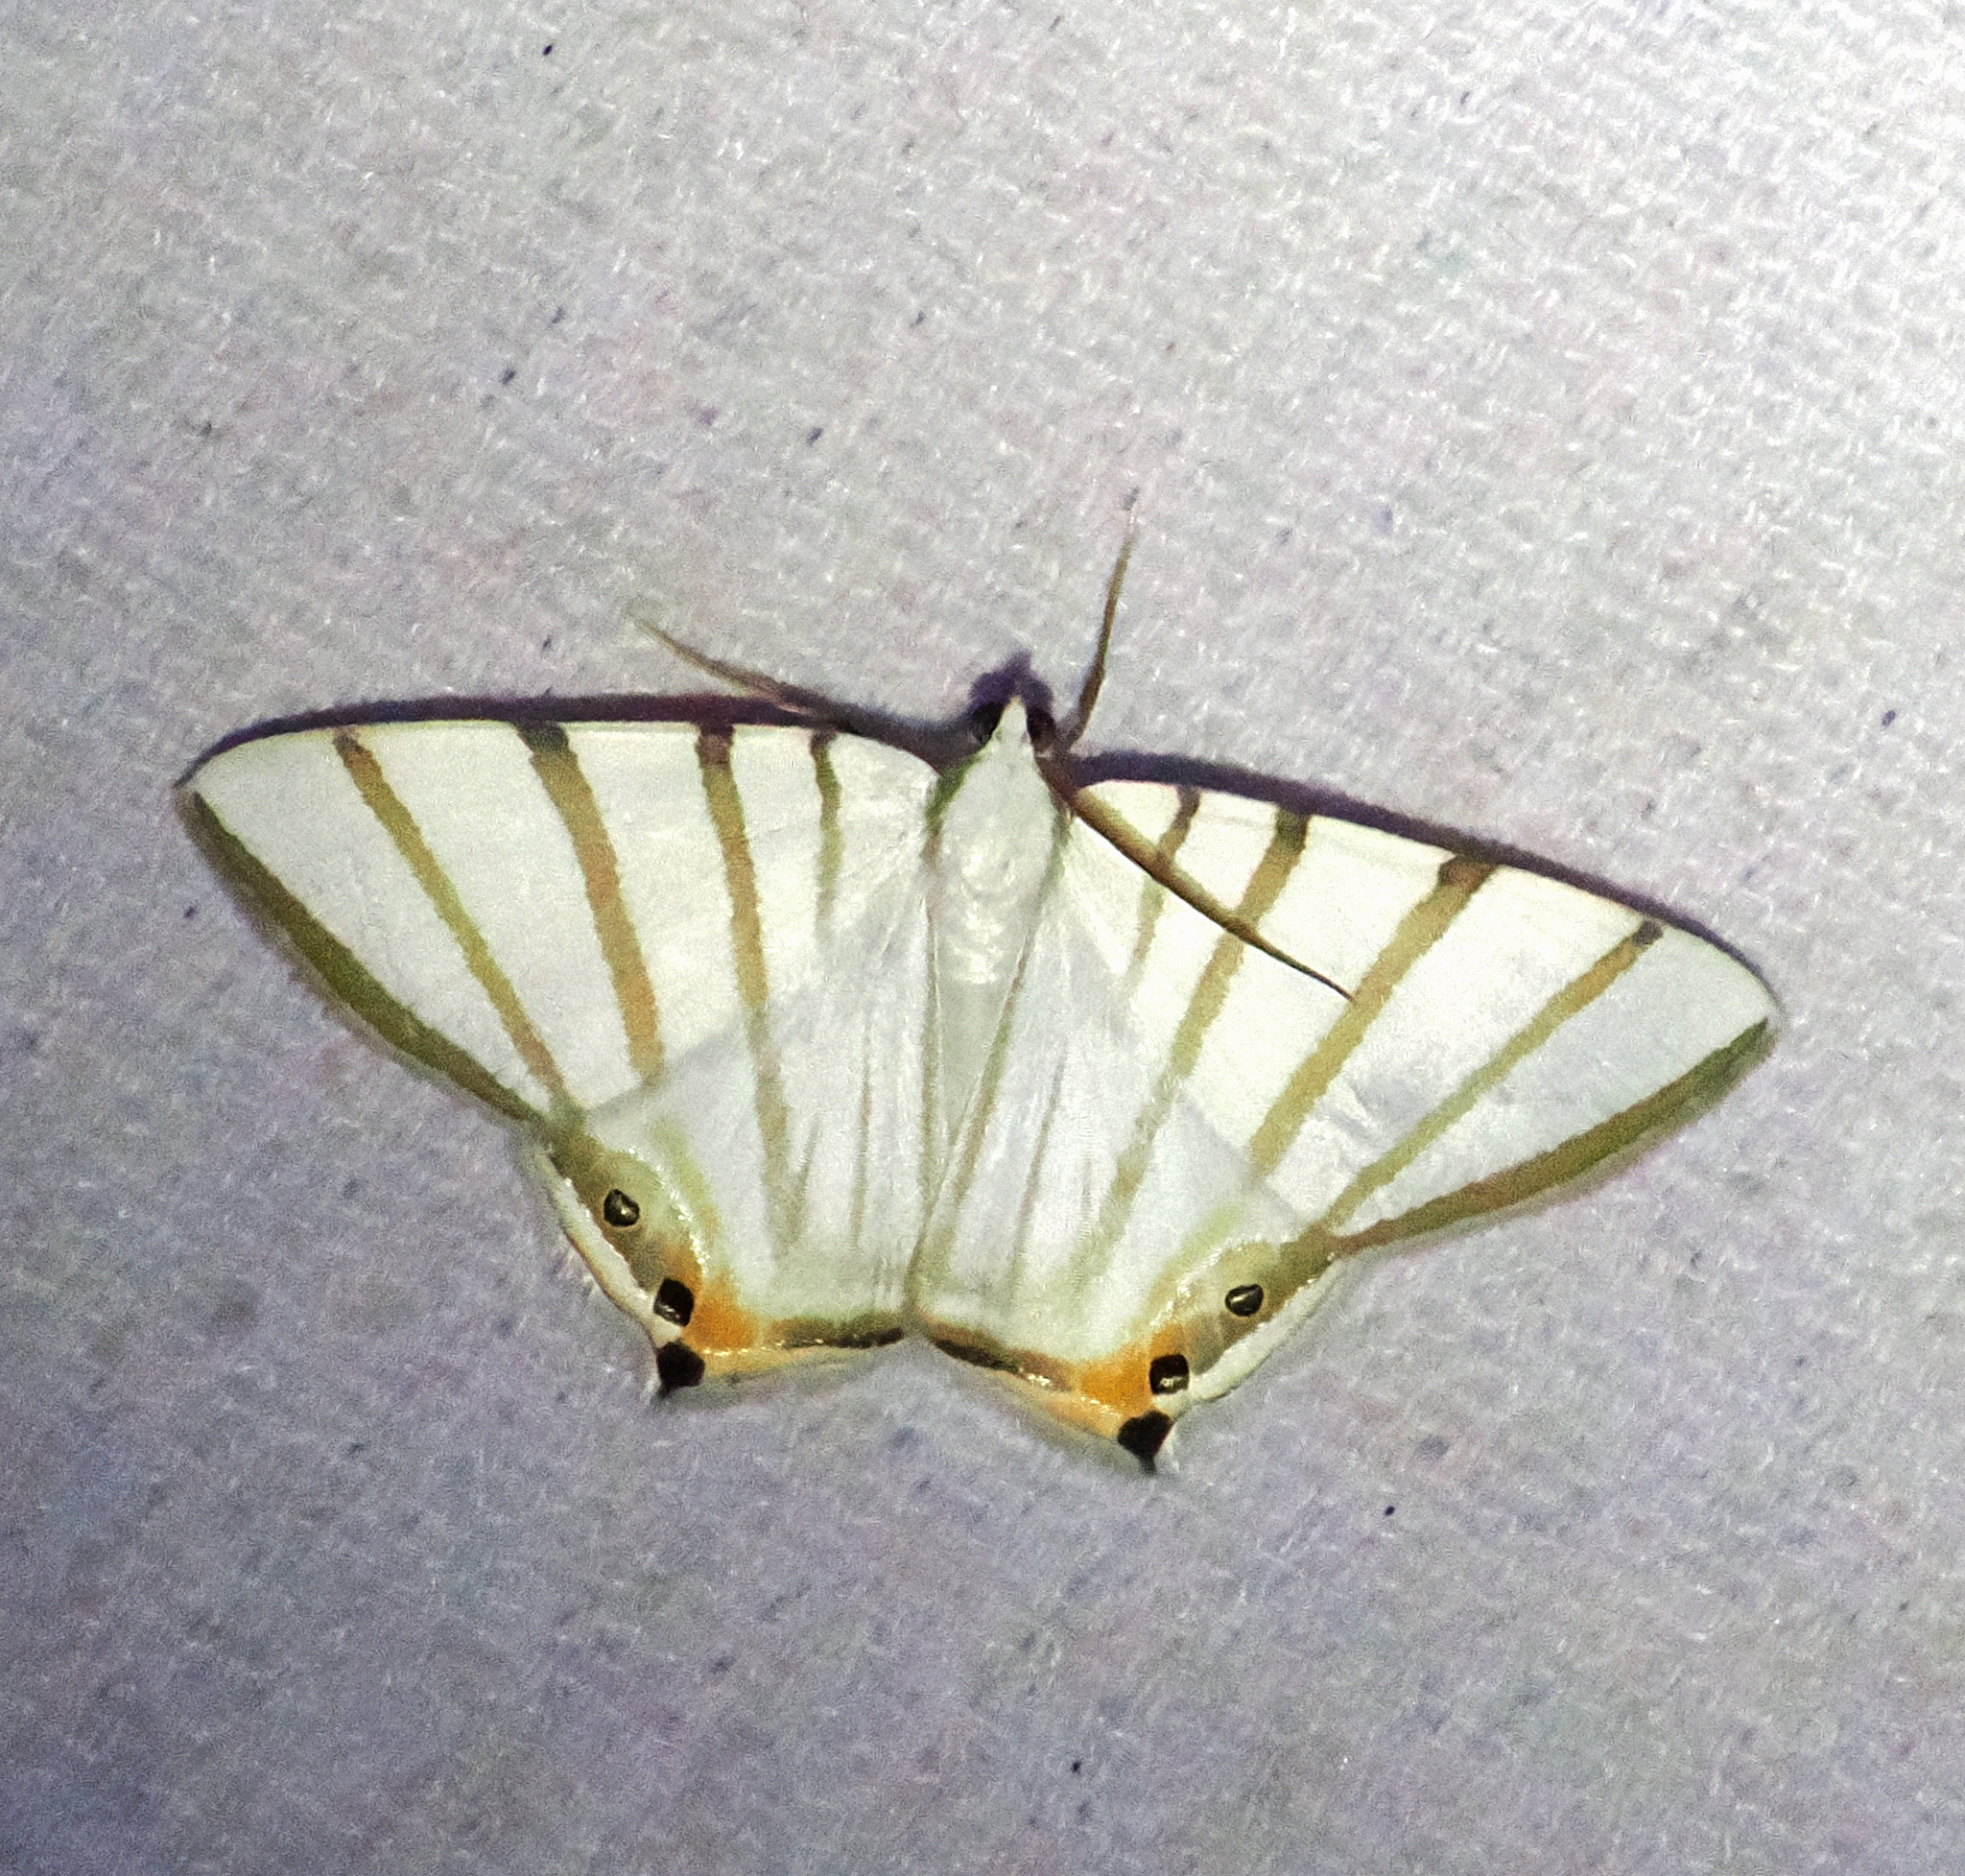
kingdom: Animalia
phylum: Arthropoda
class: Insecta
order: Lepidoptera
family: Geometridae
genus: Opisthoxia
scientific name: Opisthoxia metargyria
